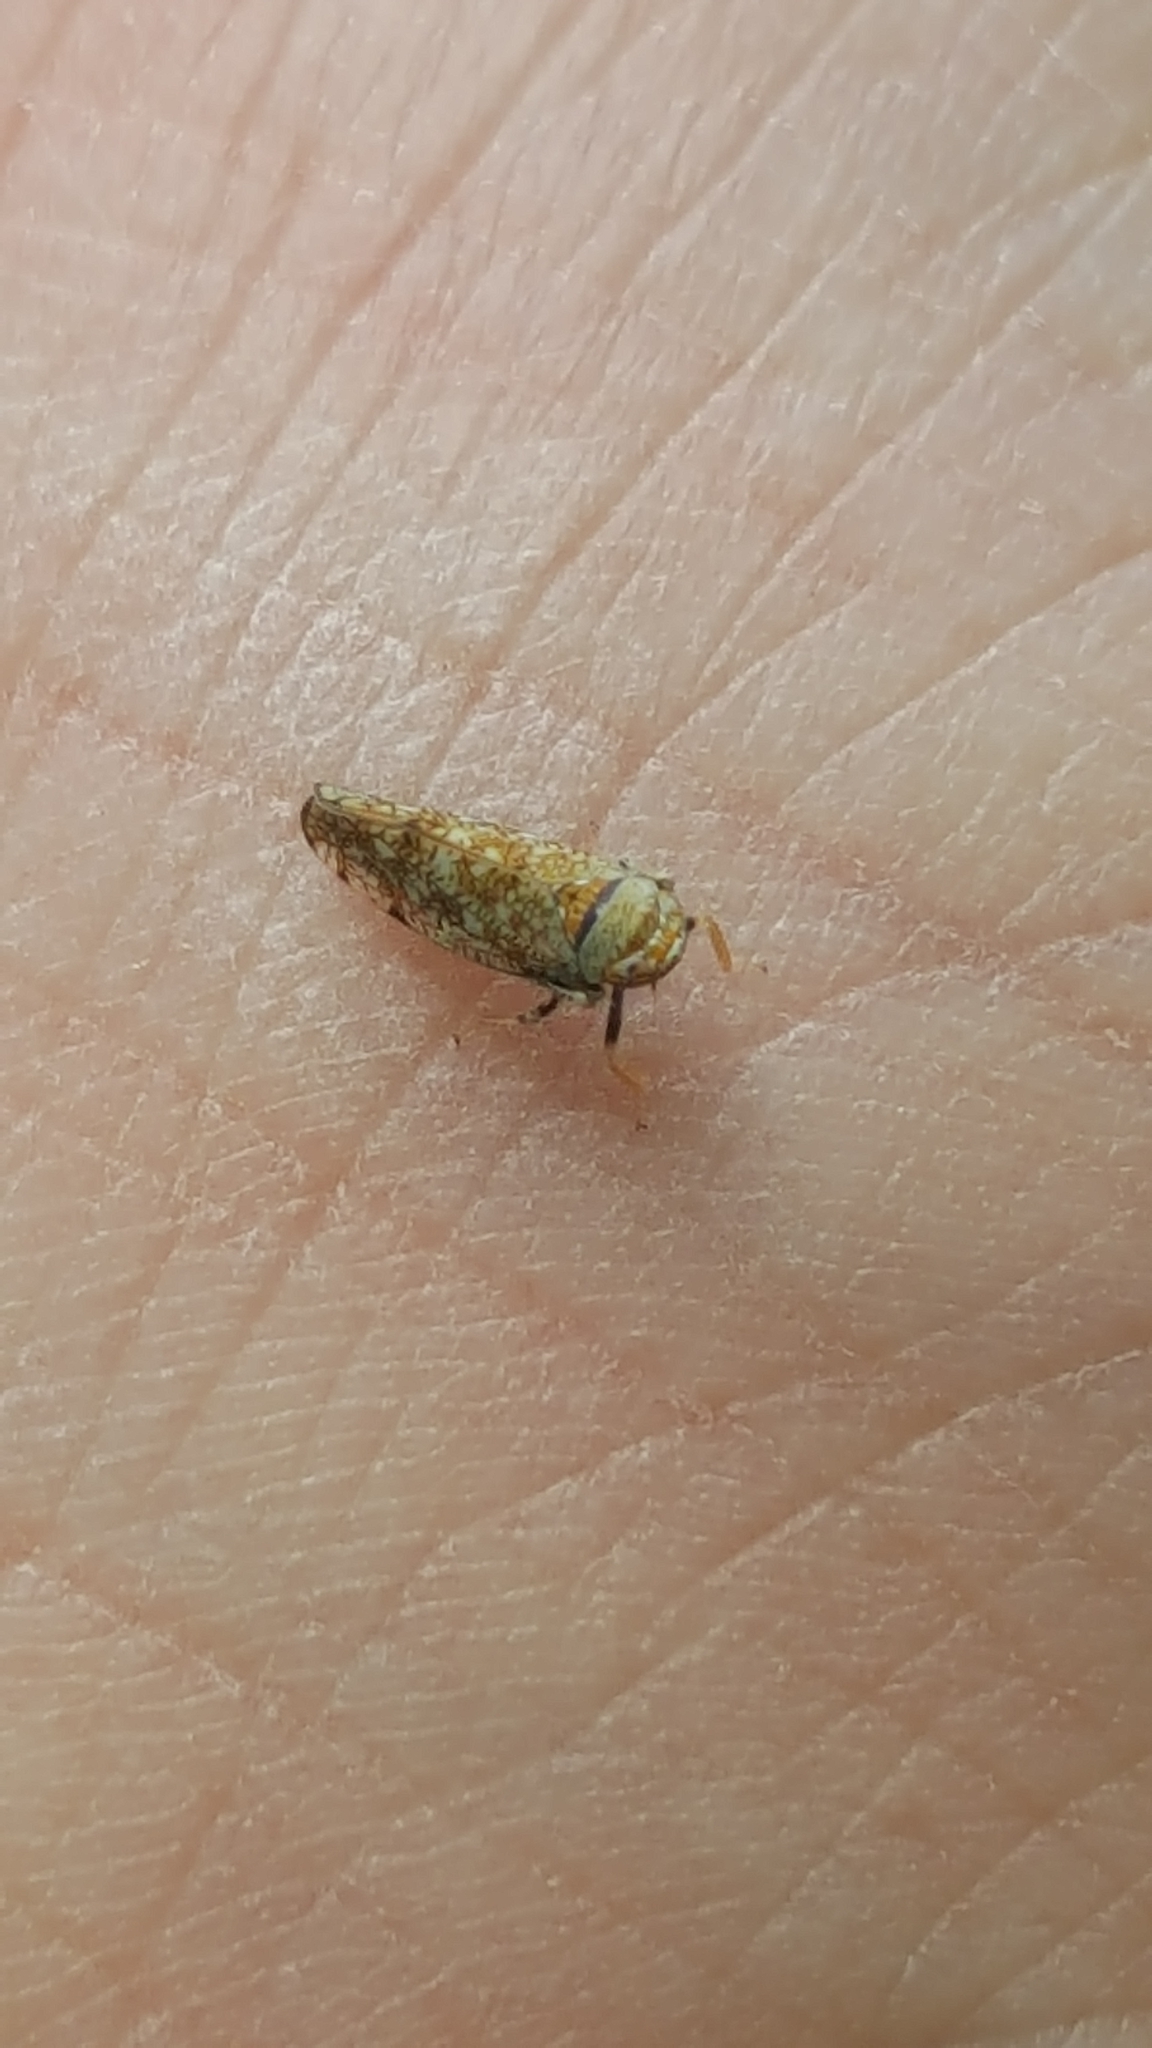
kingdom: Animalia
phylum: Arthropoda
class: Insecta
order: Hemiptera
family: Cicadellidae
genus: Orientus
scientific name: Orientus ishidae
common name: Japanese leafhopper
